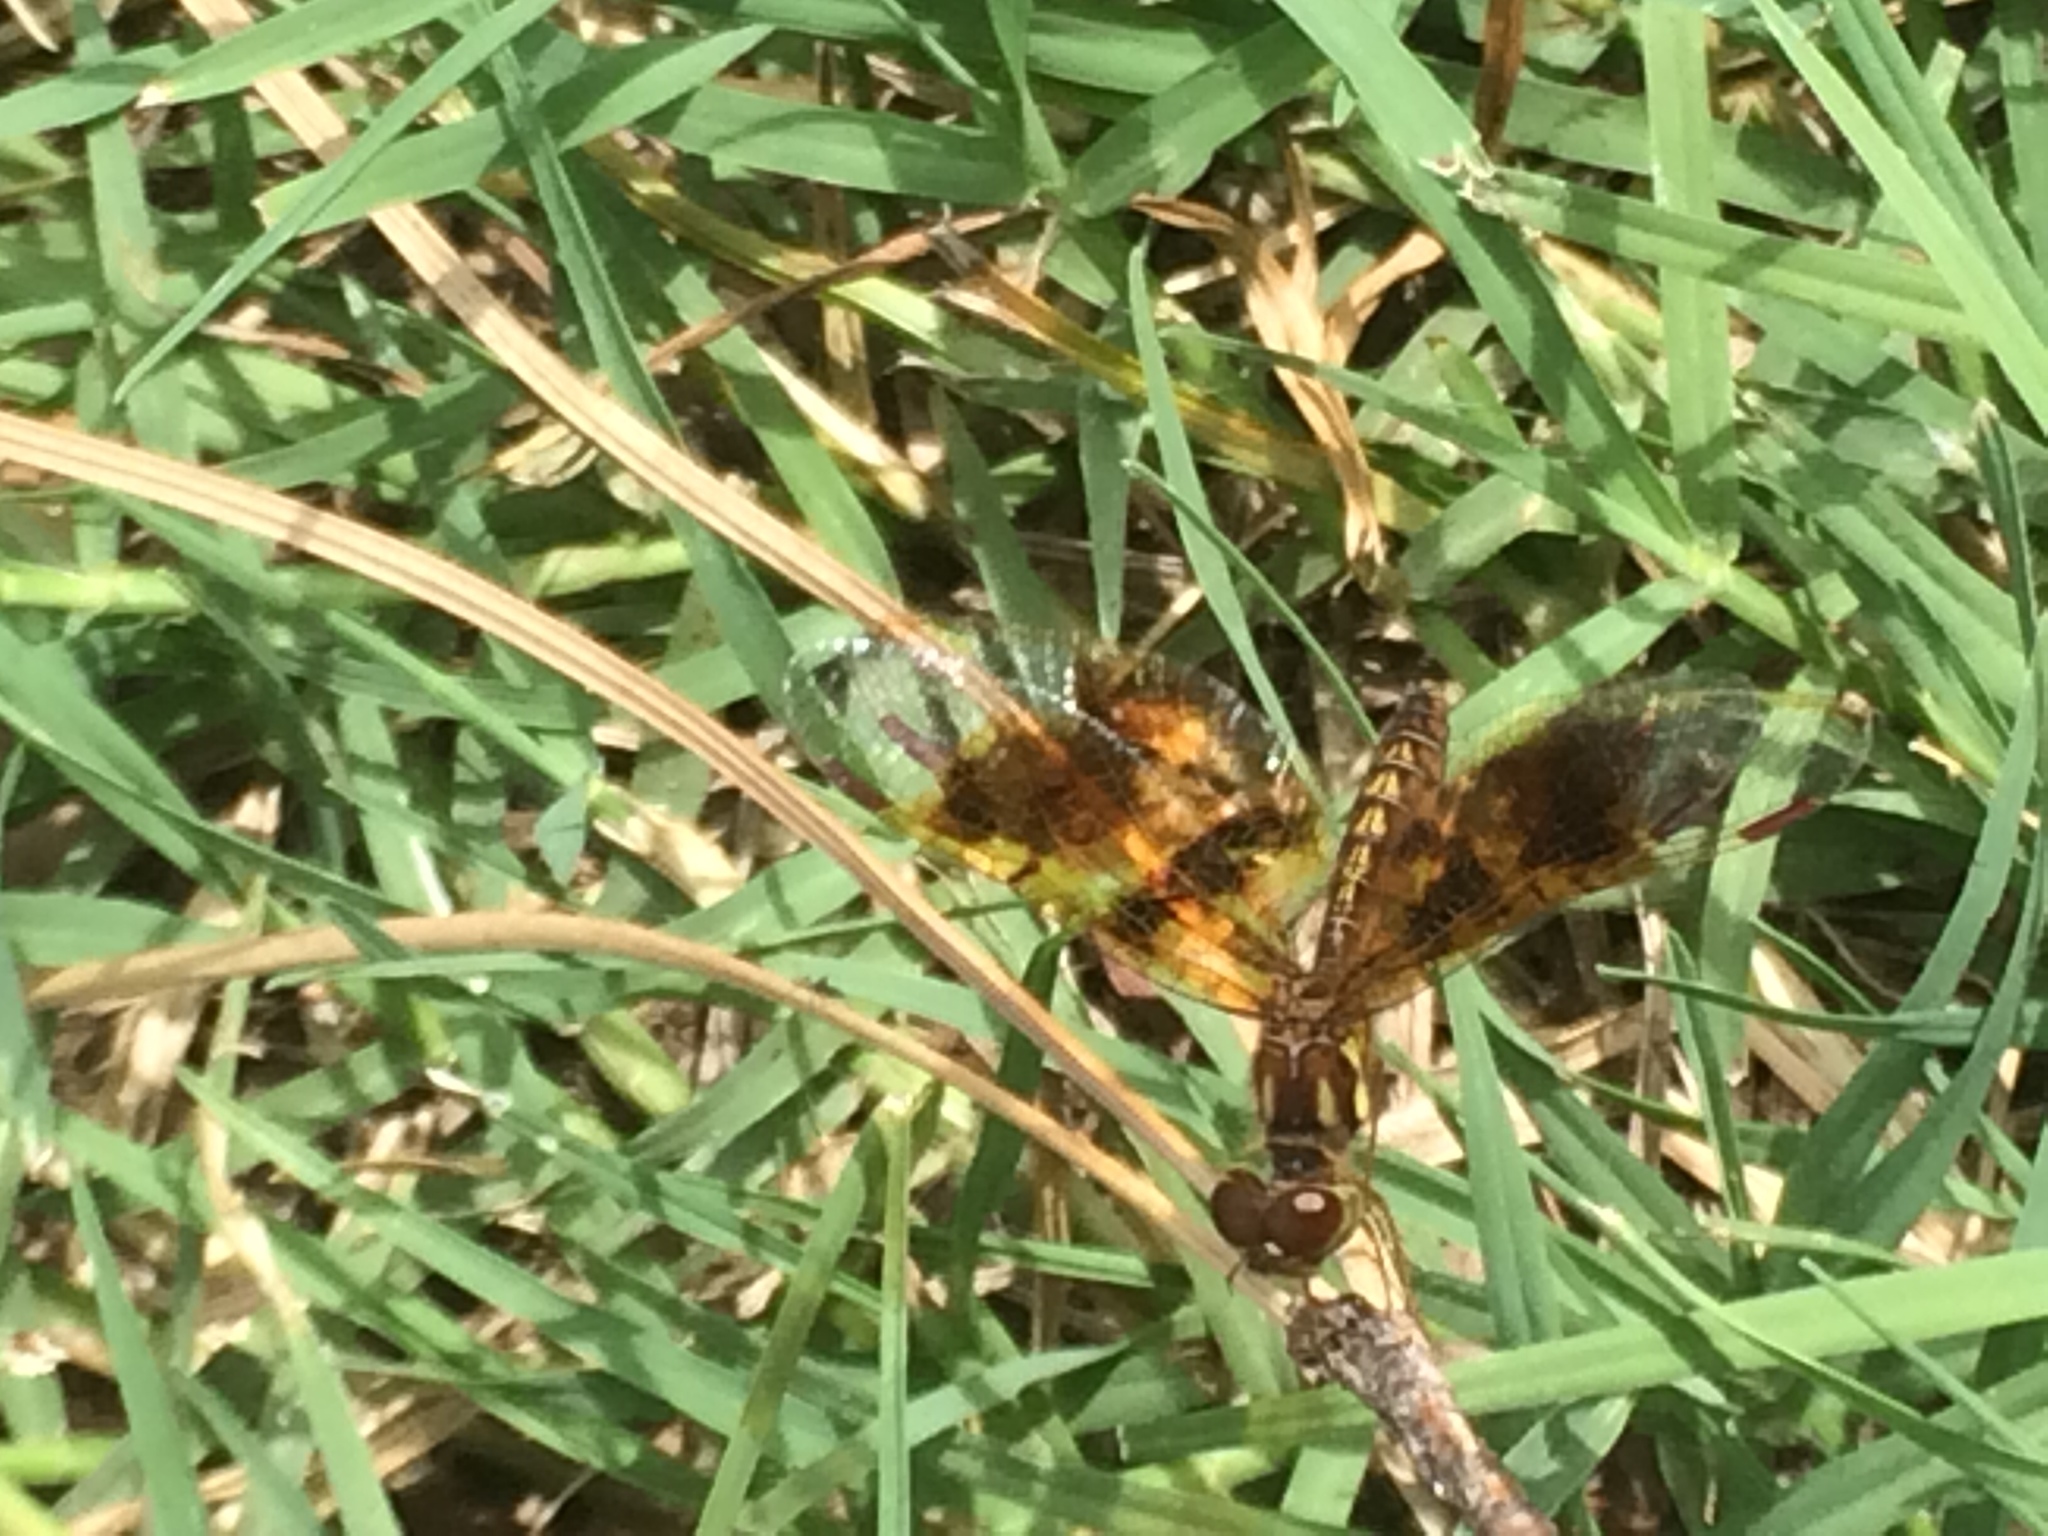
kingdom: Animalia
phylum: Arthropoda
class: Insecta
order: Odonata
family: Libellulidae
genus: Perithemis
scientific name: Perithemis tenera
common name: Eastern amberwing
